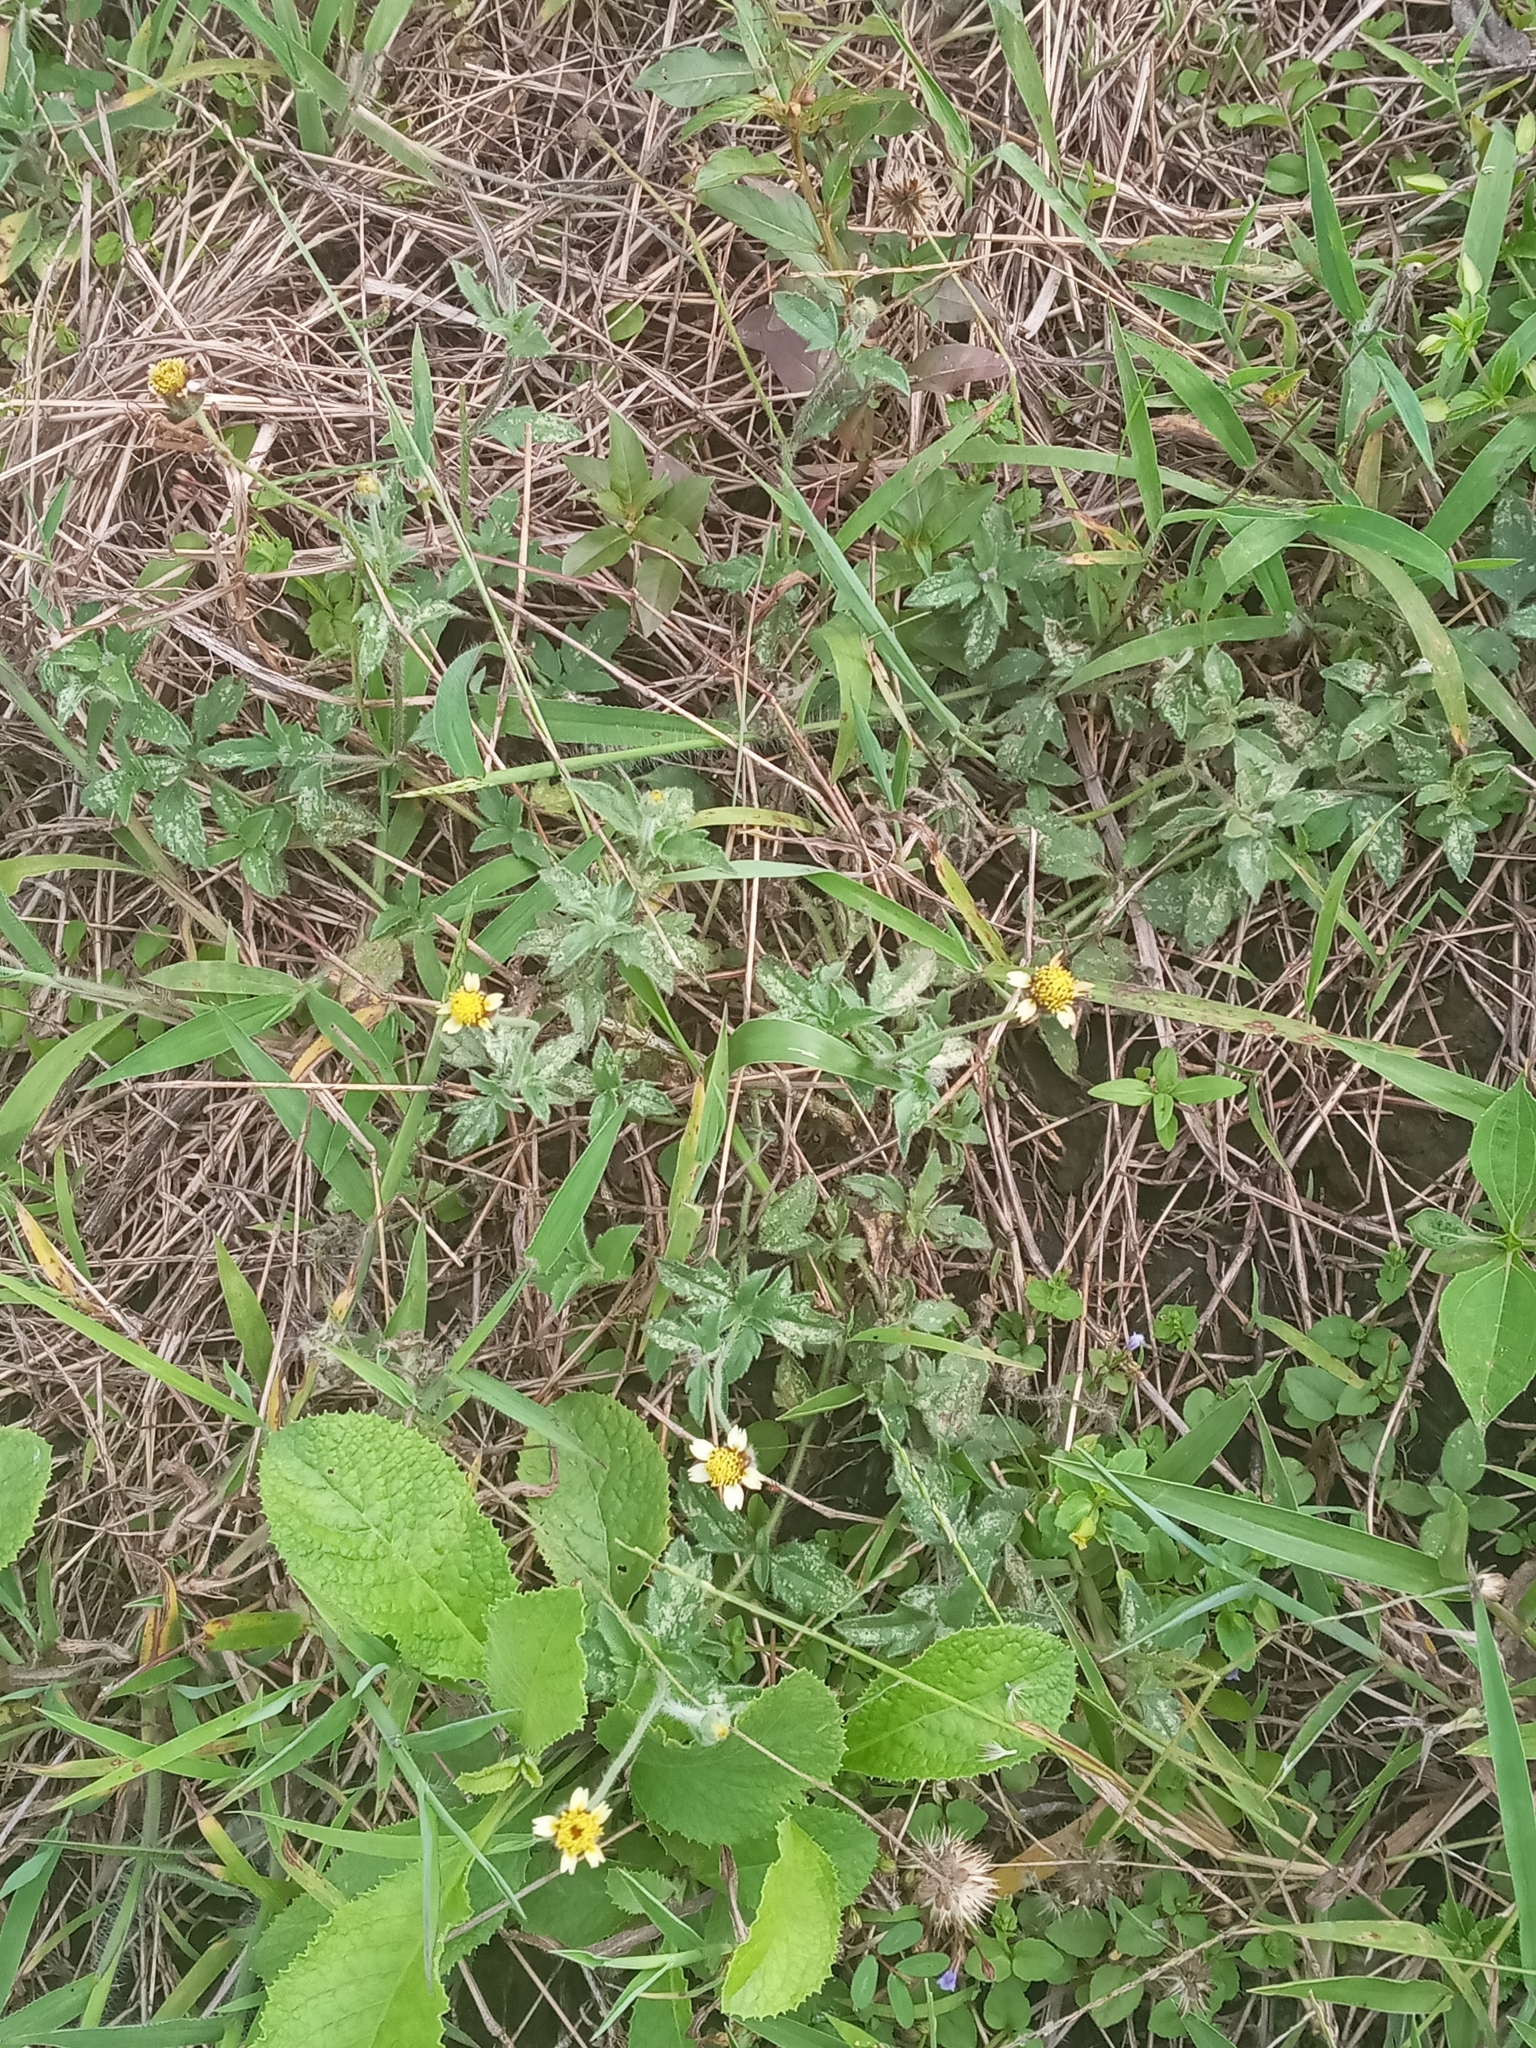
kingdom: Plantae
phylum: Tracheophyta
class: Magnoliopsida
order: Asterales
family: Asteraceae
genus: Tridax
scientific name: Tridax procumbens
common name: Coatbuttons
